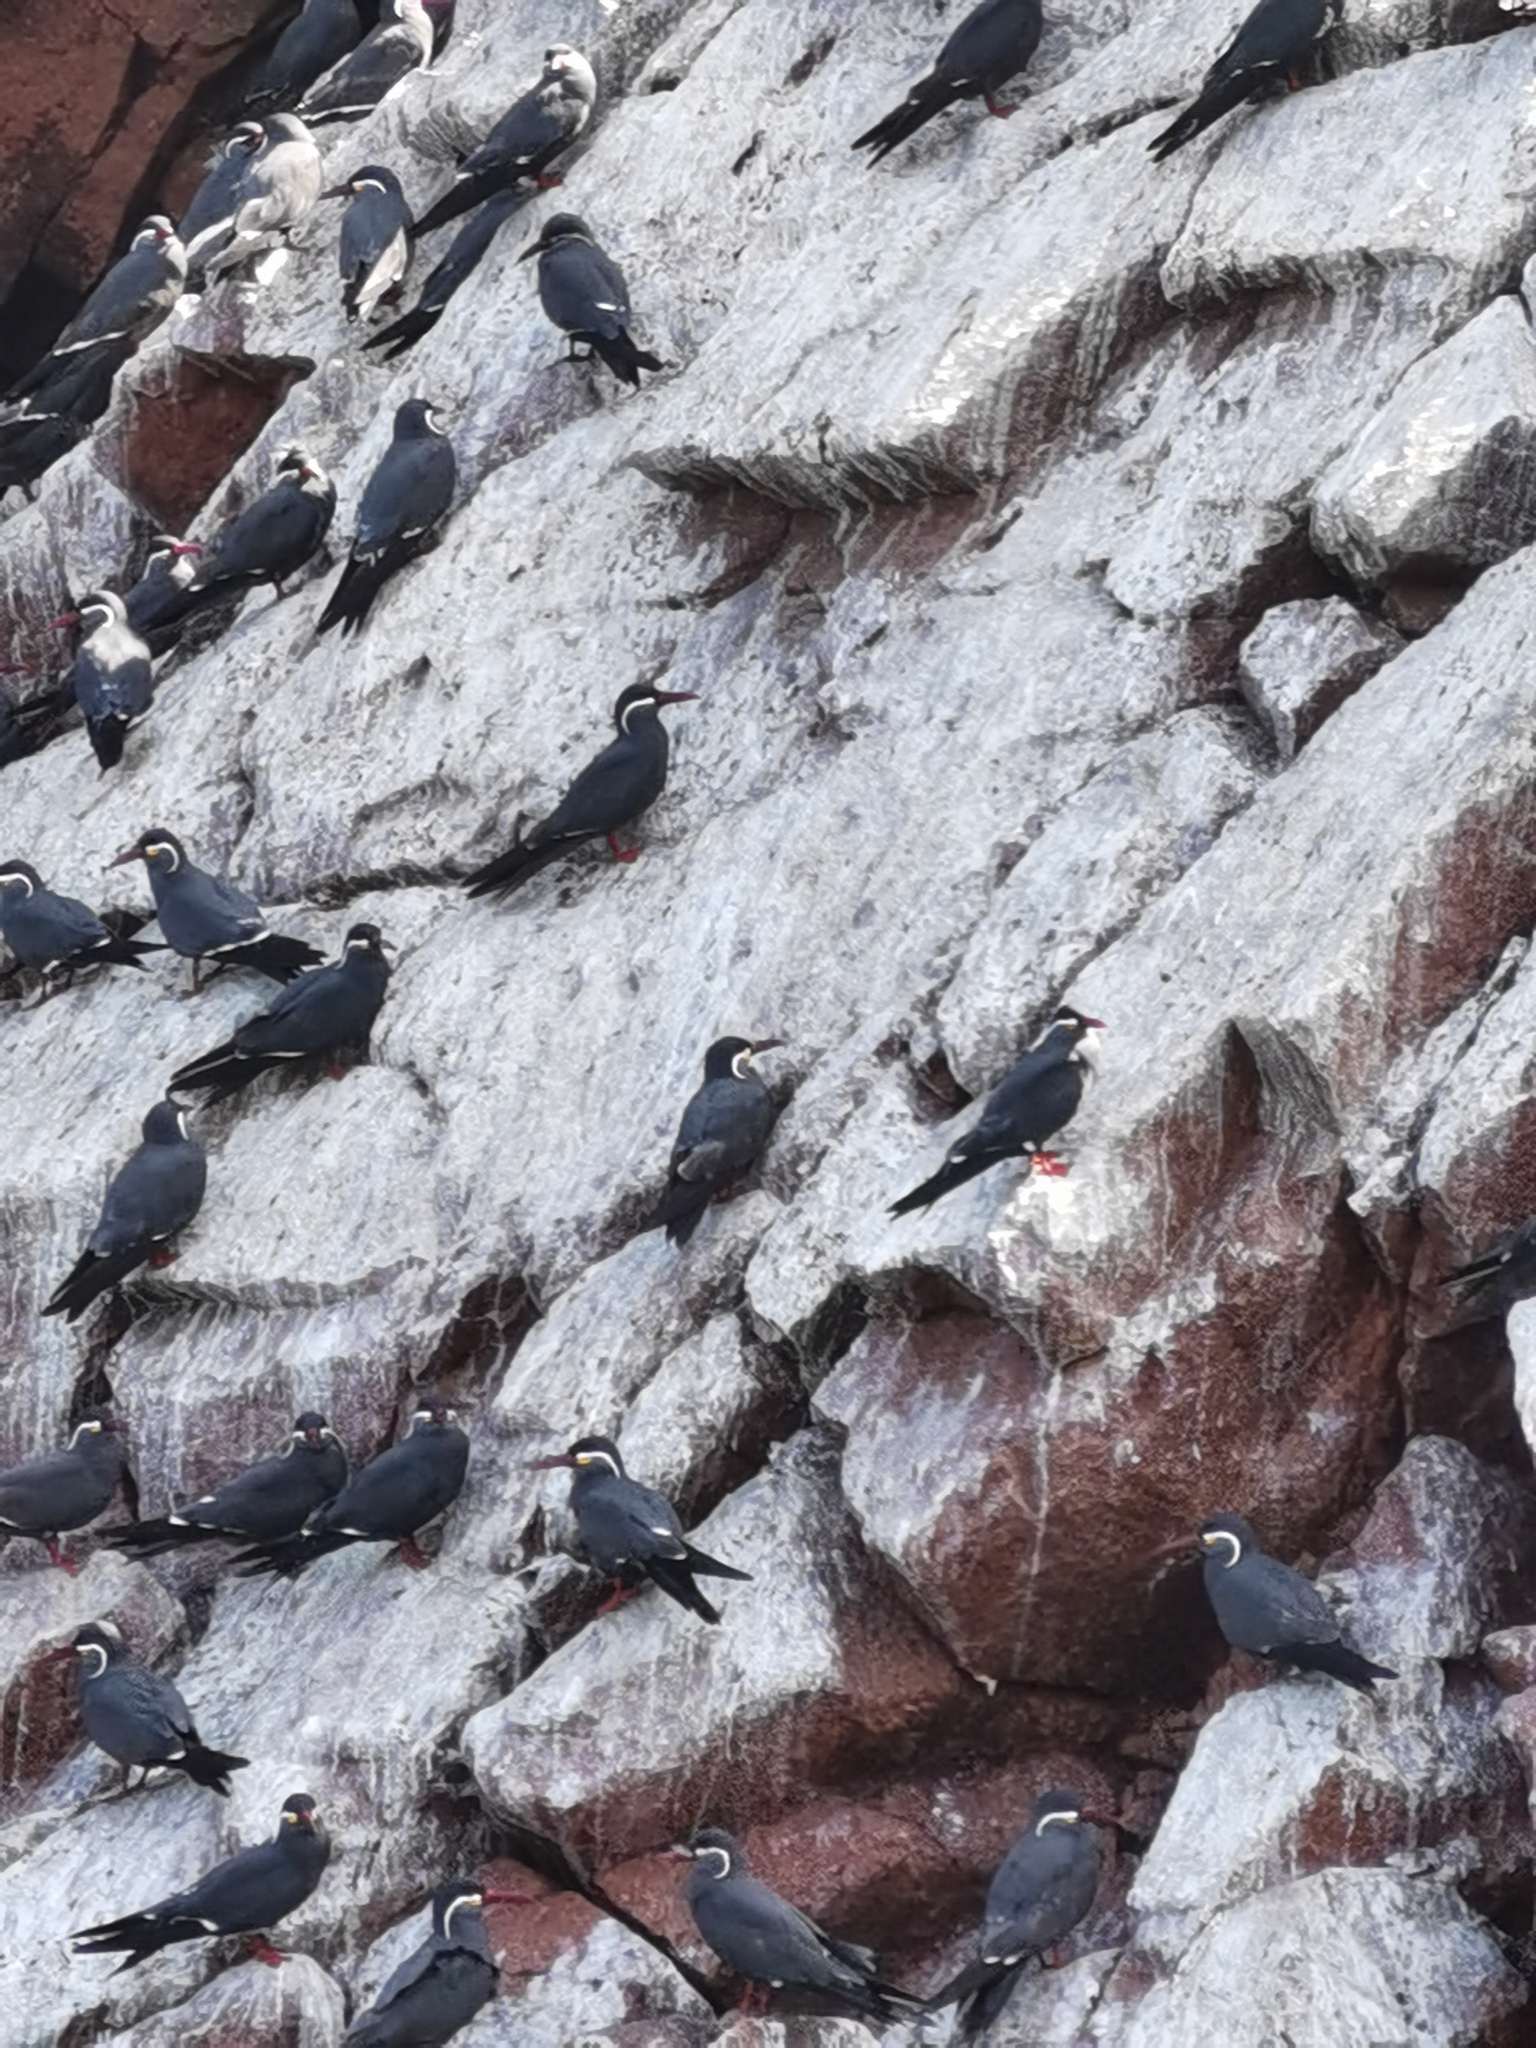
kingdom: Animalia
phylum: Chordata
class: Aves
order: Charadriiformes
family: Laridae
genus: Larosterna
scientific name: Larosterna inca
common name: Inca tern
